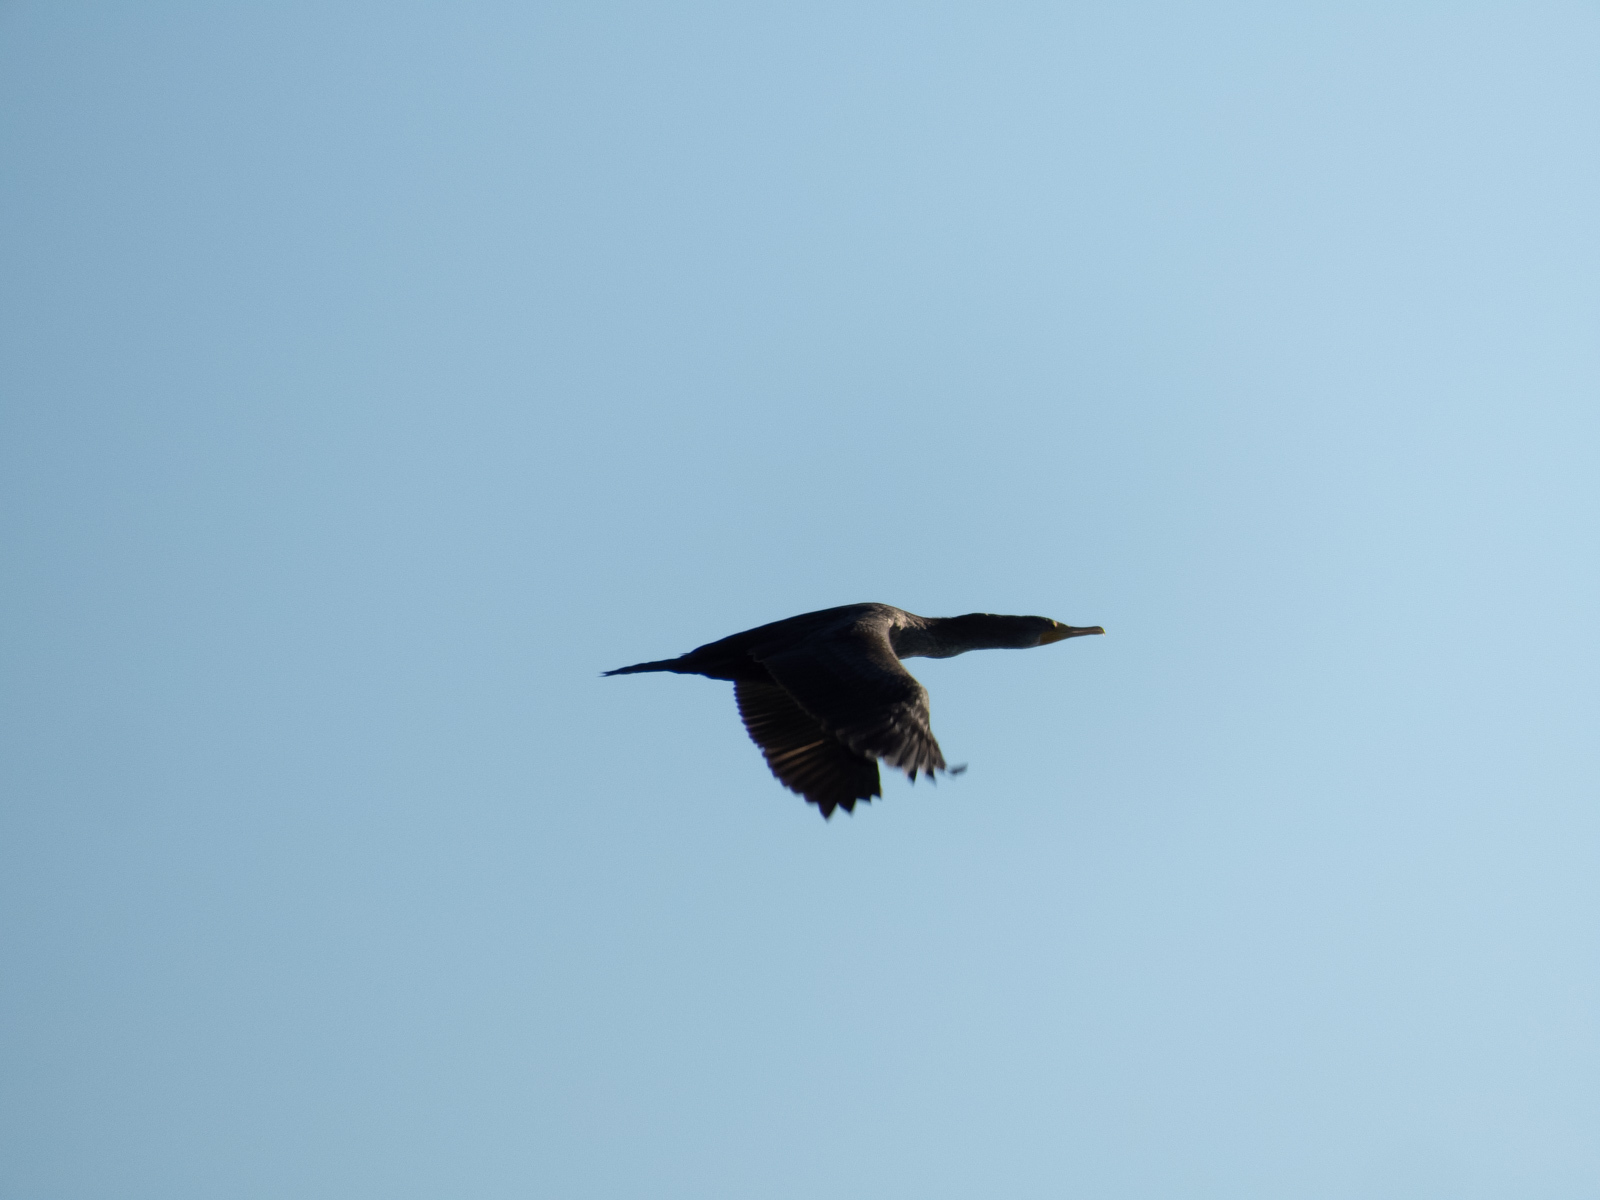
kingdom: Animalia
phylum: Chordata
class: Aves
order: Suliformes
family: Phalacrocoracidae
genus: Phalacrocorax
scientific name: Phalacrocorax auritus
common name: Double-crested cormorant
